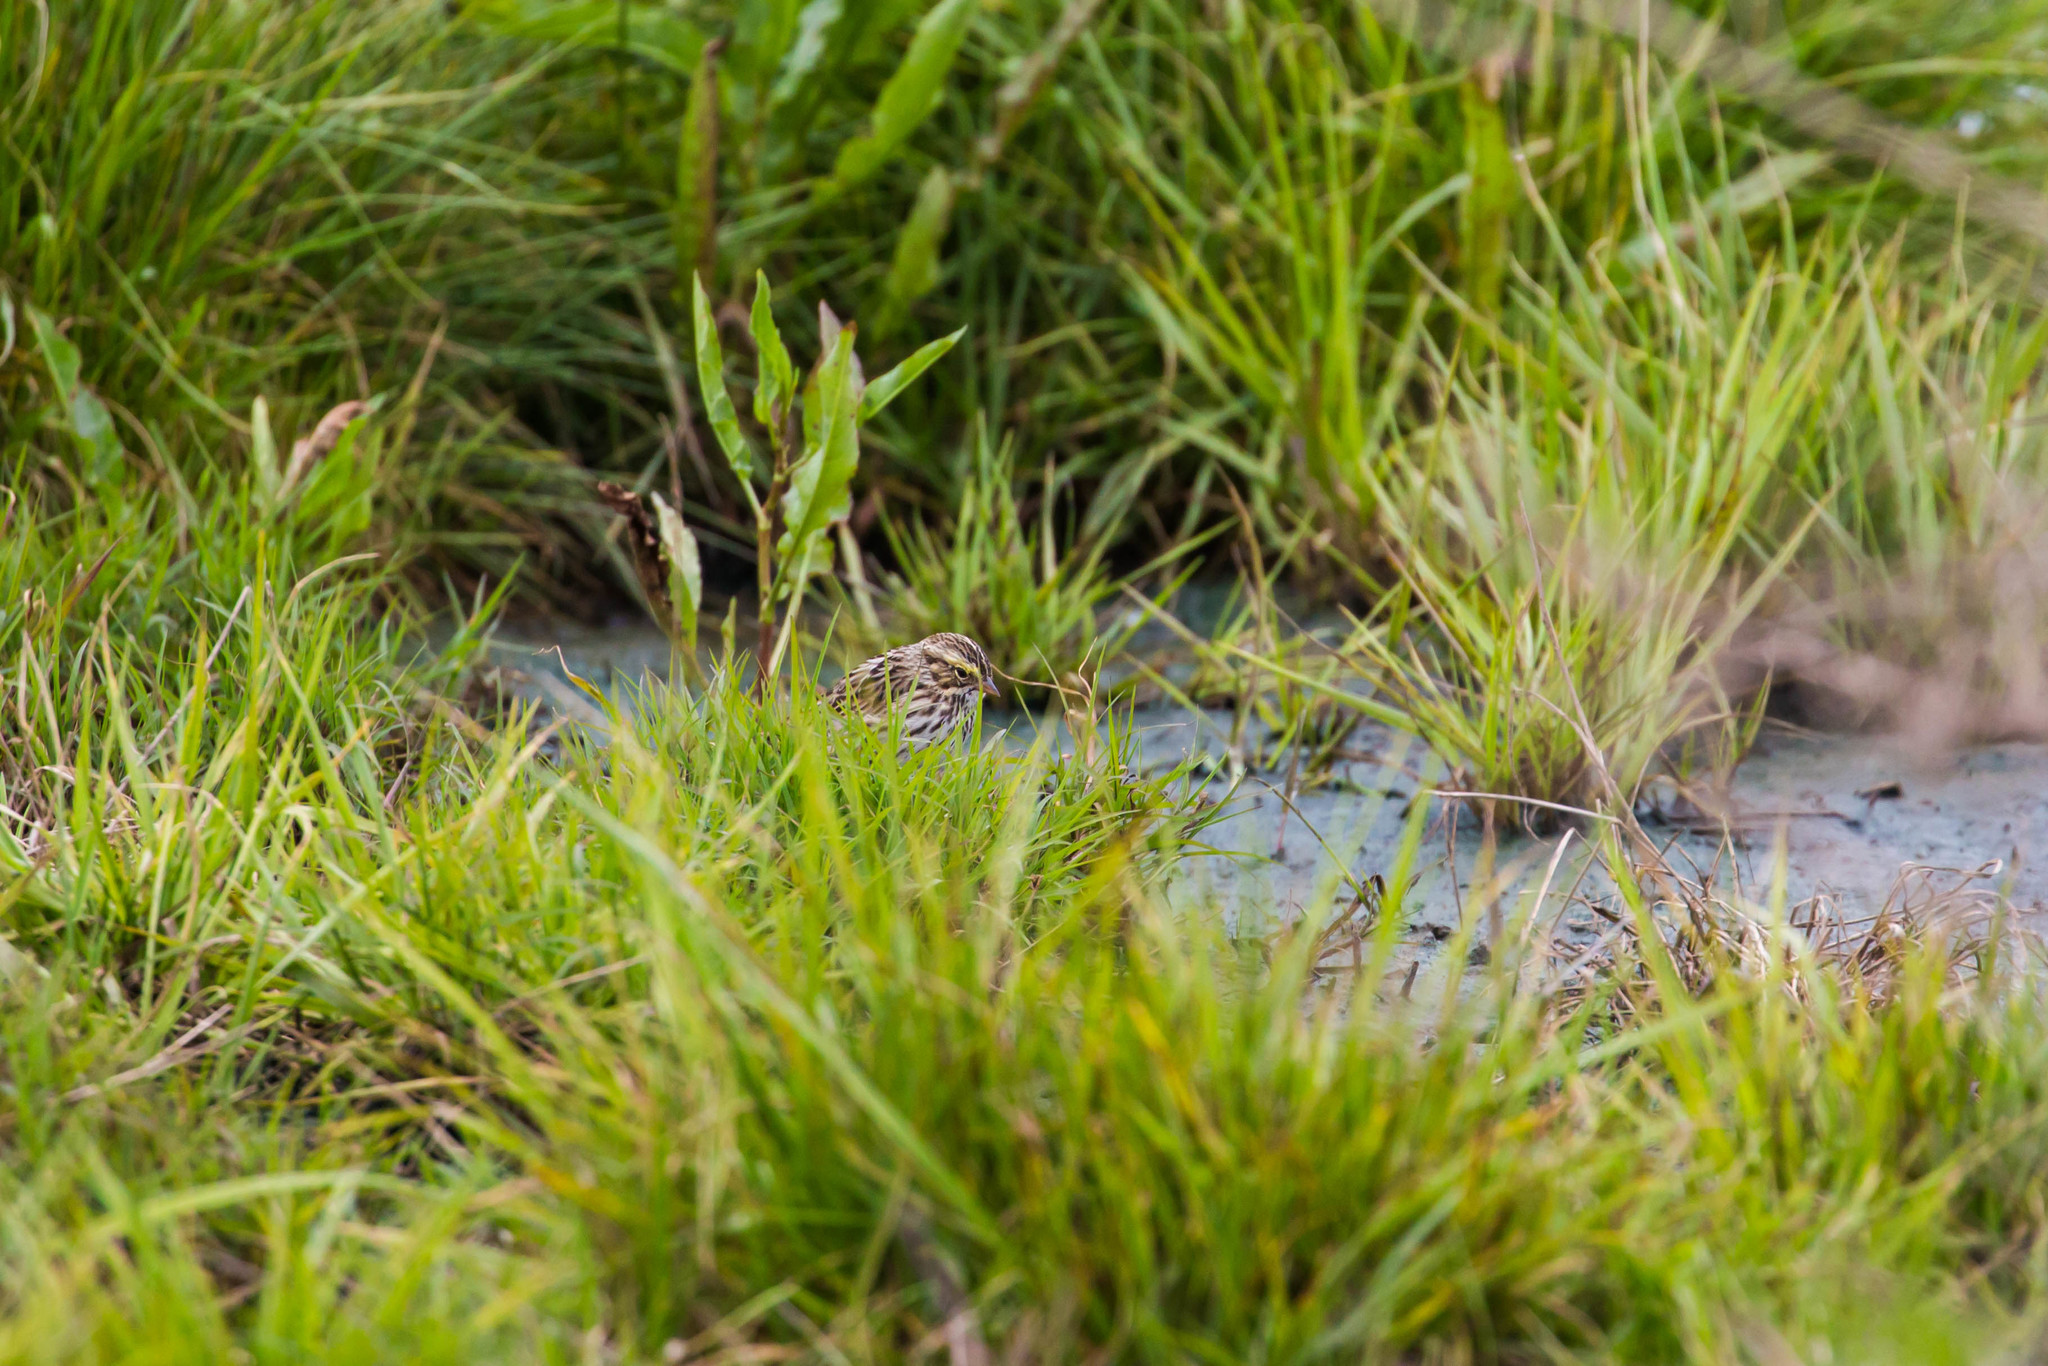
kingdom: Animalia
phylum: Chordata
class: Aves
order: Passeriformes
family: Passerellidae
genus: Passerculus
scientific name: Passerculus sandwichensis
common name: Savannah sparrow
